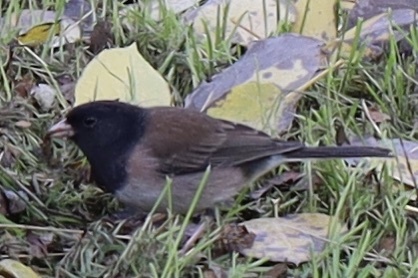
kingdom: Animalia
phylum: Chordata
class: Aves
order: Passeriformes
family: Passerellidae
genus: Junco
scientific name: Junco hyemalis
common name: Dark-eyed junco
